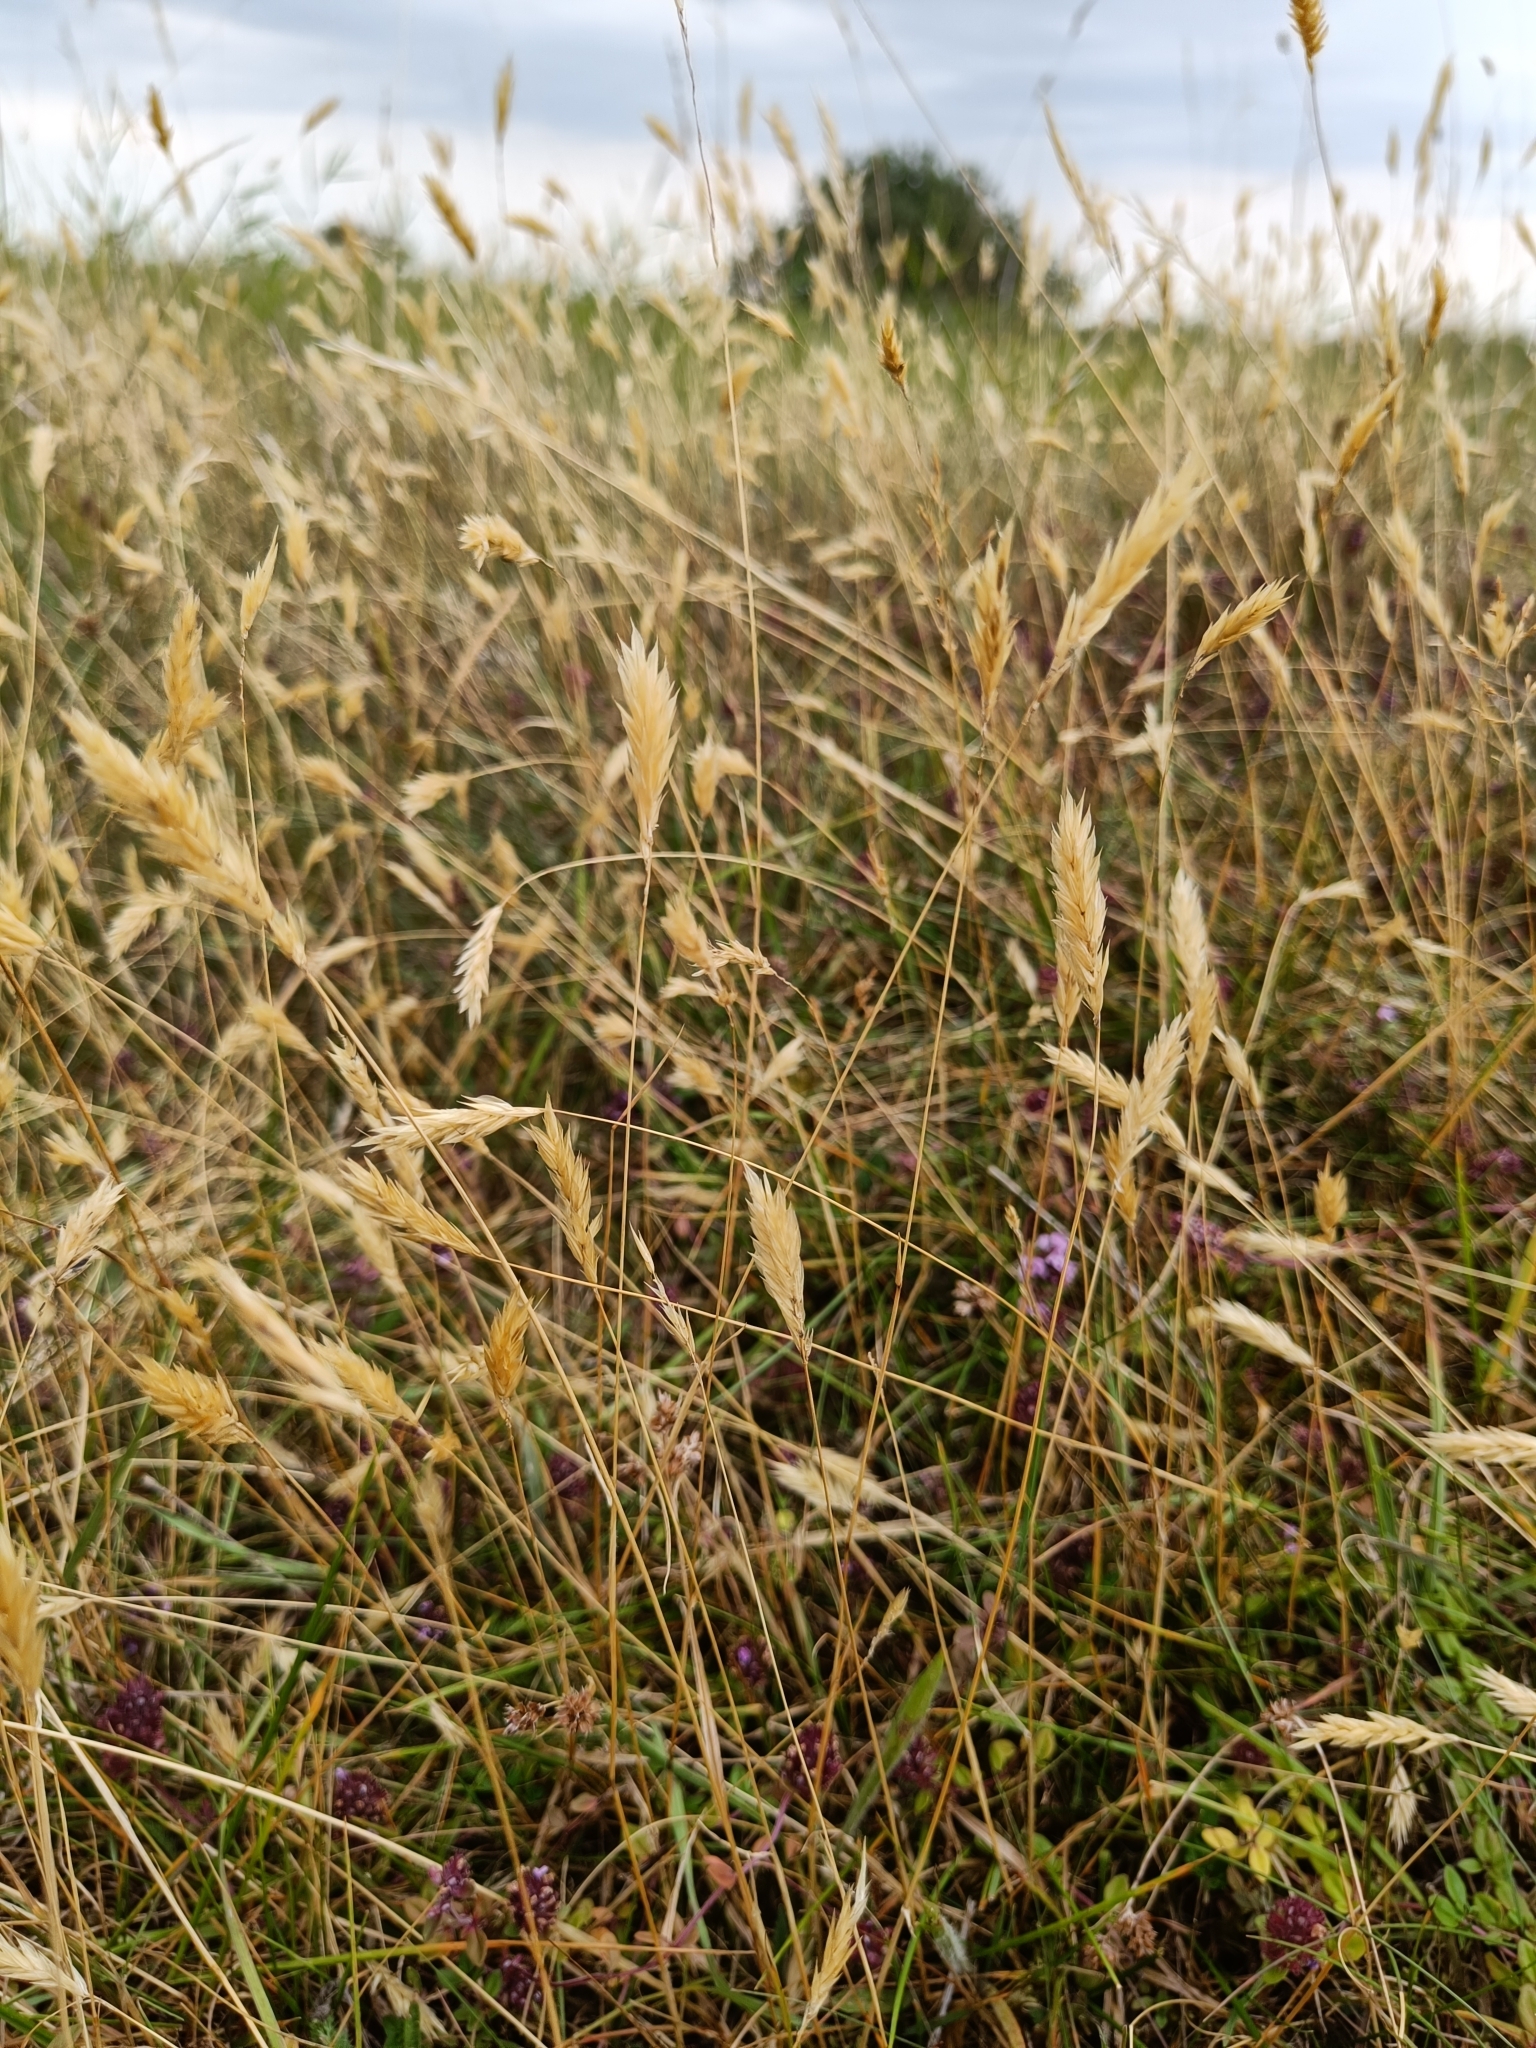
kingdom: Plantae
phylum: Tracheophyta
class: Liliopsida
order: Poales
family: Poaceae
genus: Anthoxanthum
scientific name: Anthoxanthum odoratum
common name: Sweet vernalgrass
